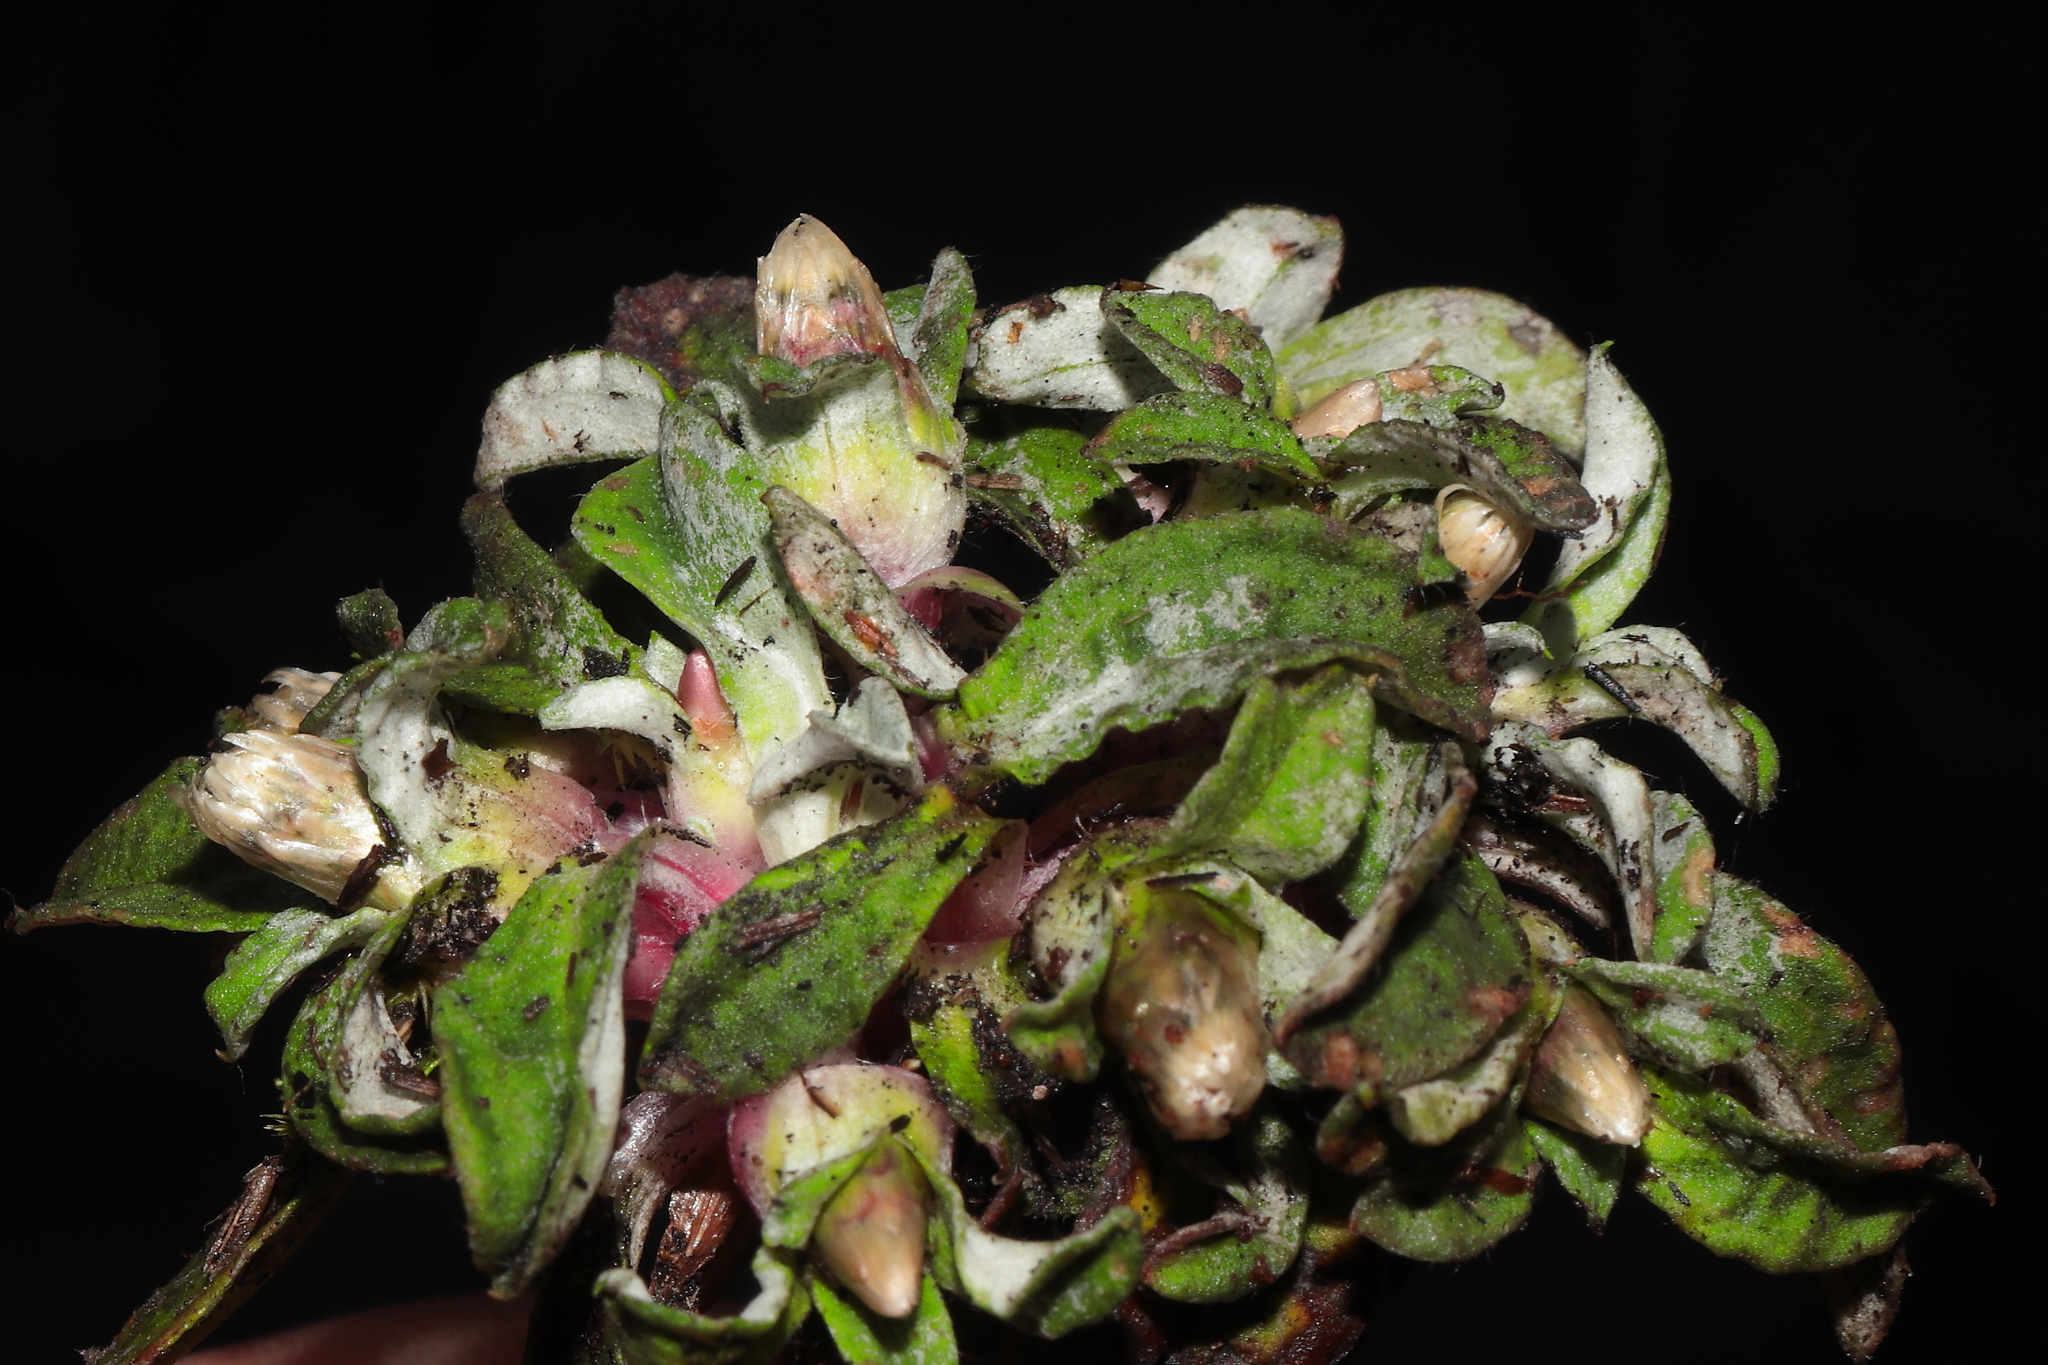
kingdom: Plantae
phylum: Tracheophyta
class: Magnoliopsida
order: Asterales
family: Asteraceae
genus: Mniodes
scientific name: Mniodes longifolia
